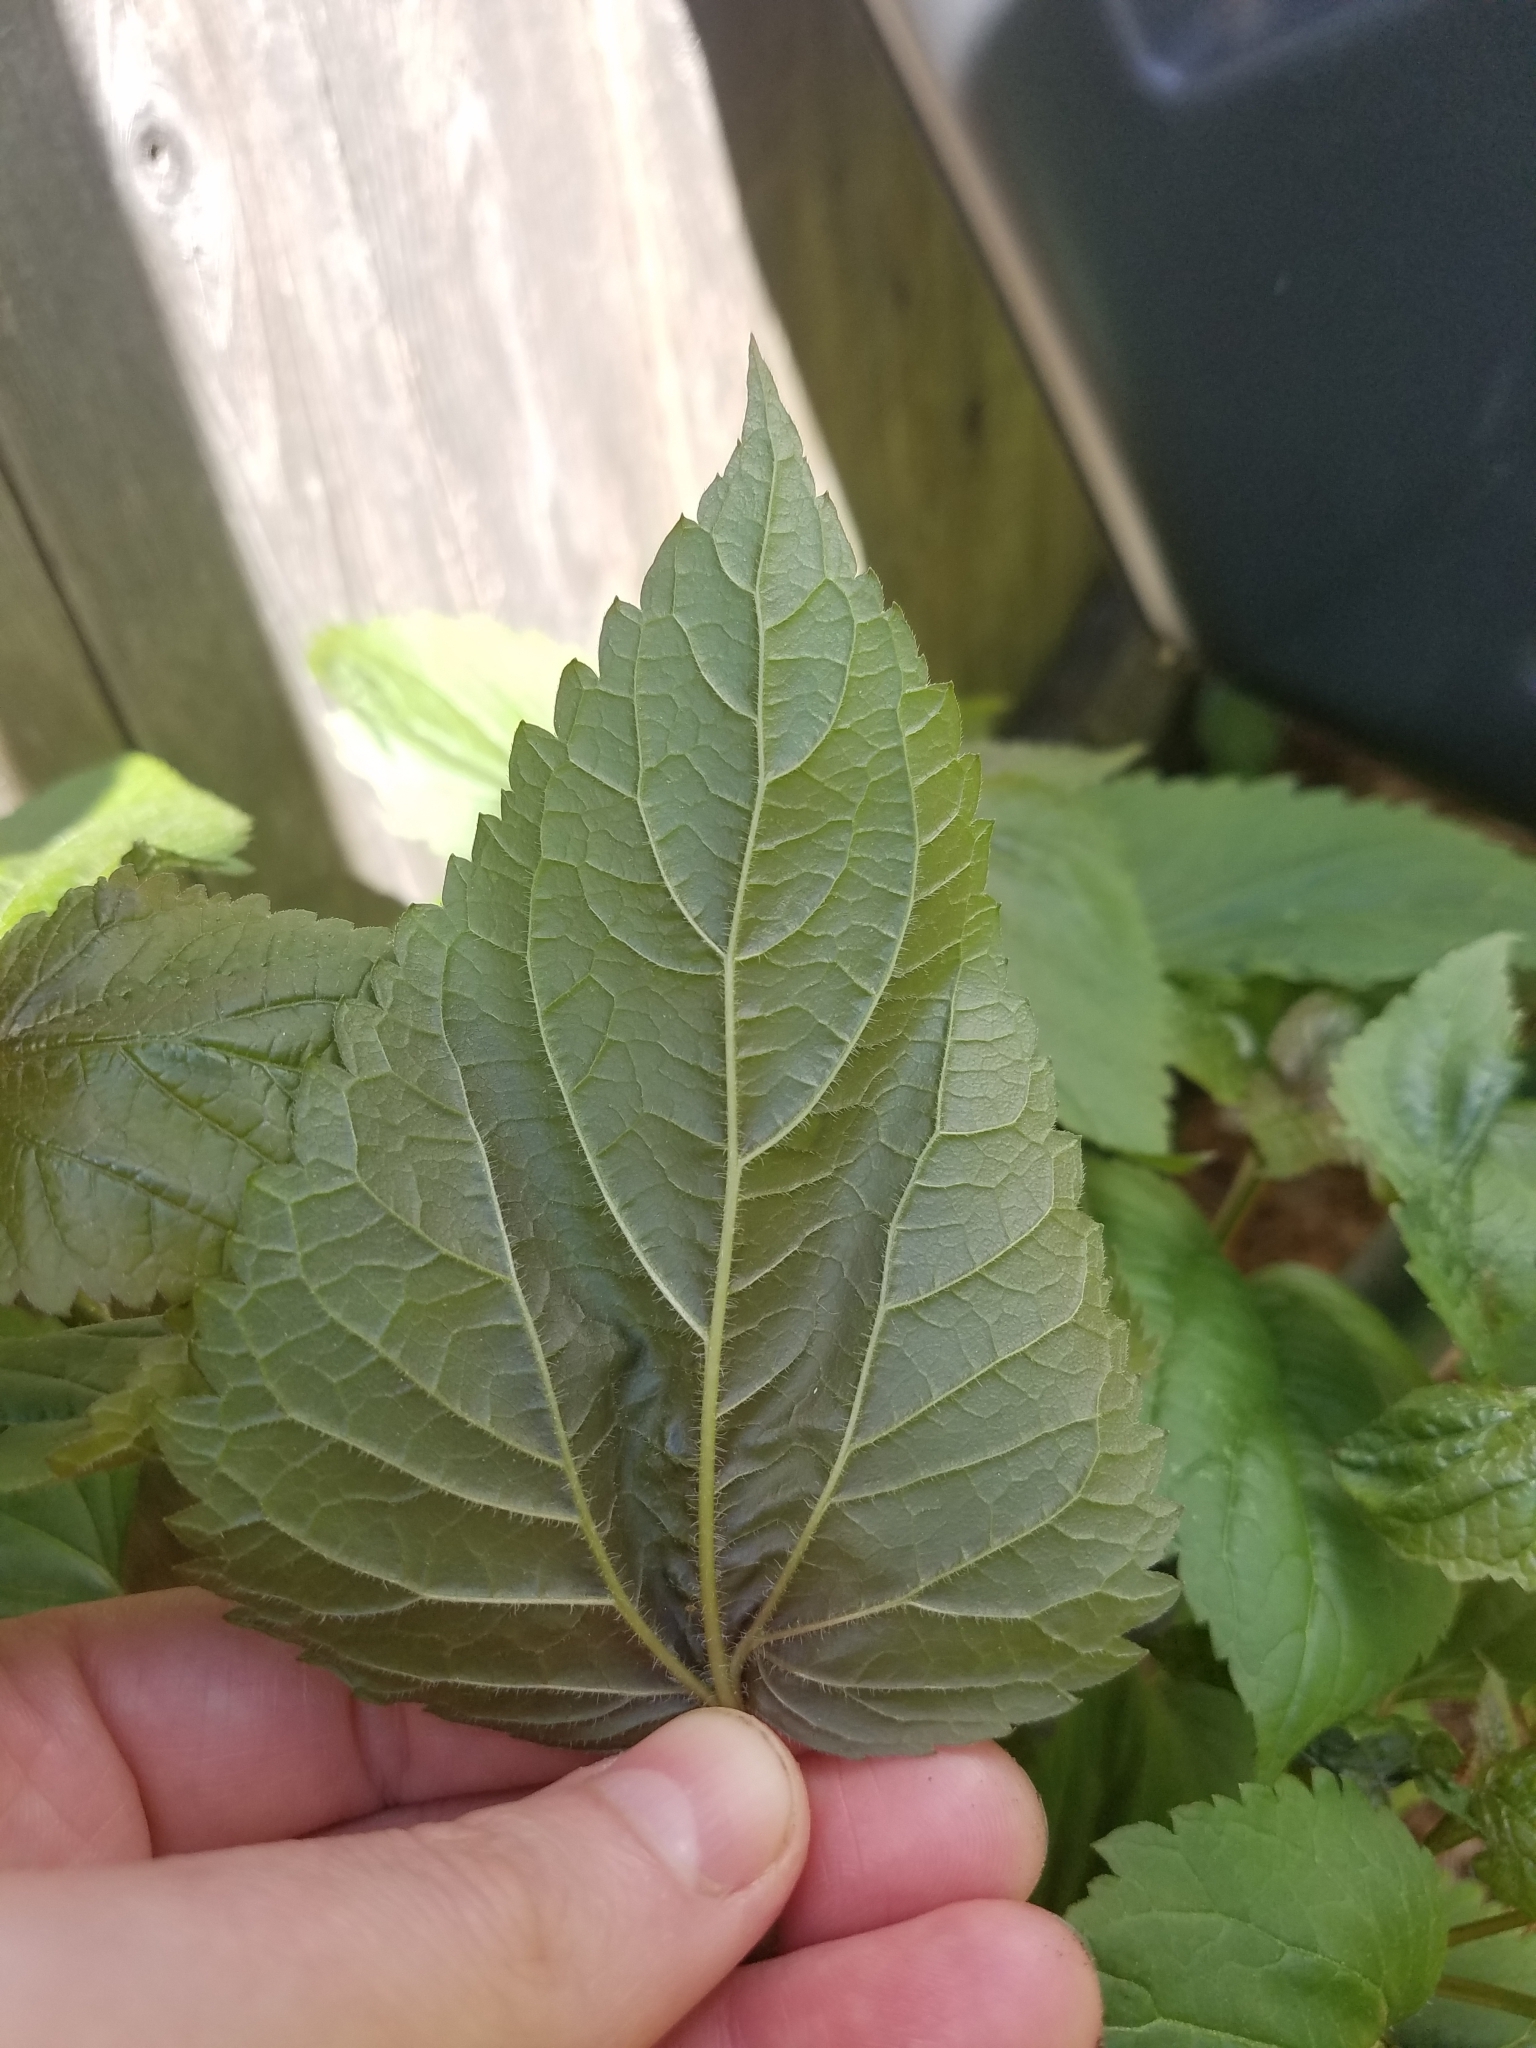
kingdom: Plantae
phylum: Tracheophyta
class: Magnoliopsida
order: Asterales
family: Asteraceae
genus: Ageratina
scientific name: Ageratina altissima
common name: White snakeroot
